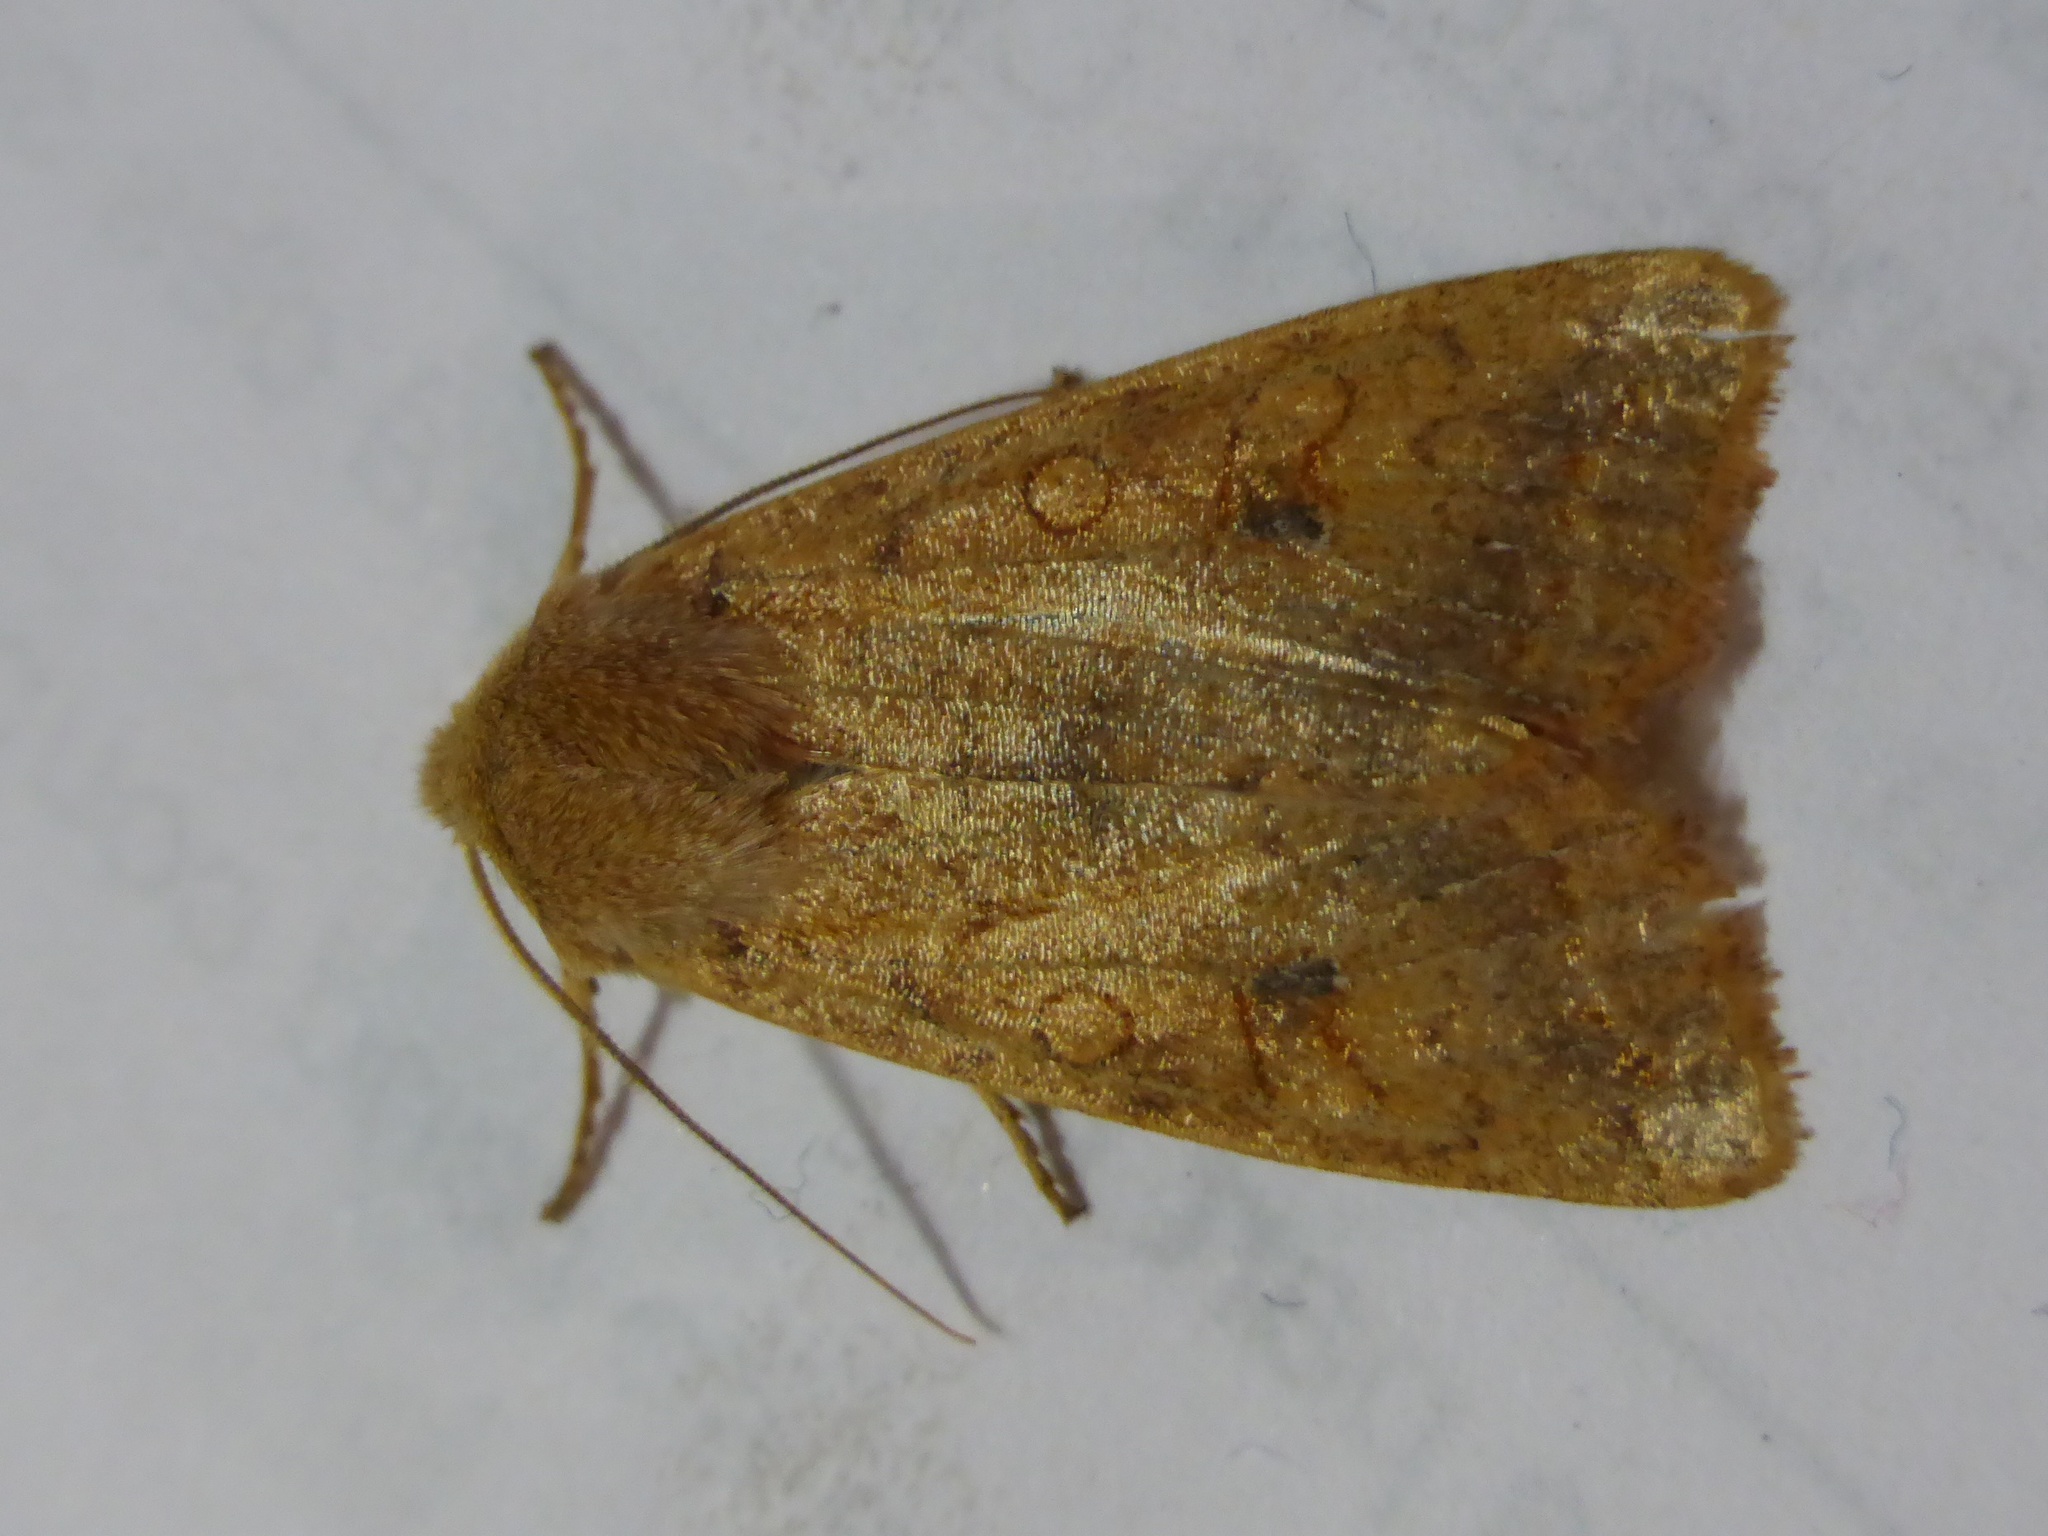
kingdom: Animalia
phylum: Arthropoda
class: Insecta
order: Lepidoptera
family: Noctuidae
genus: Sunira
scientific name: Sunira circellaris
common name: Brick
